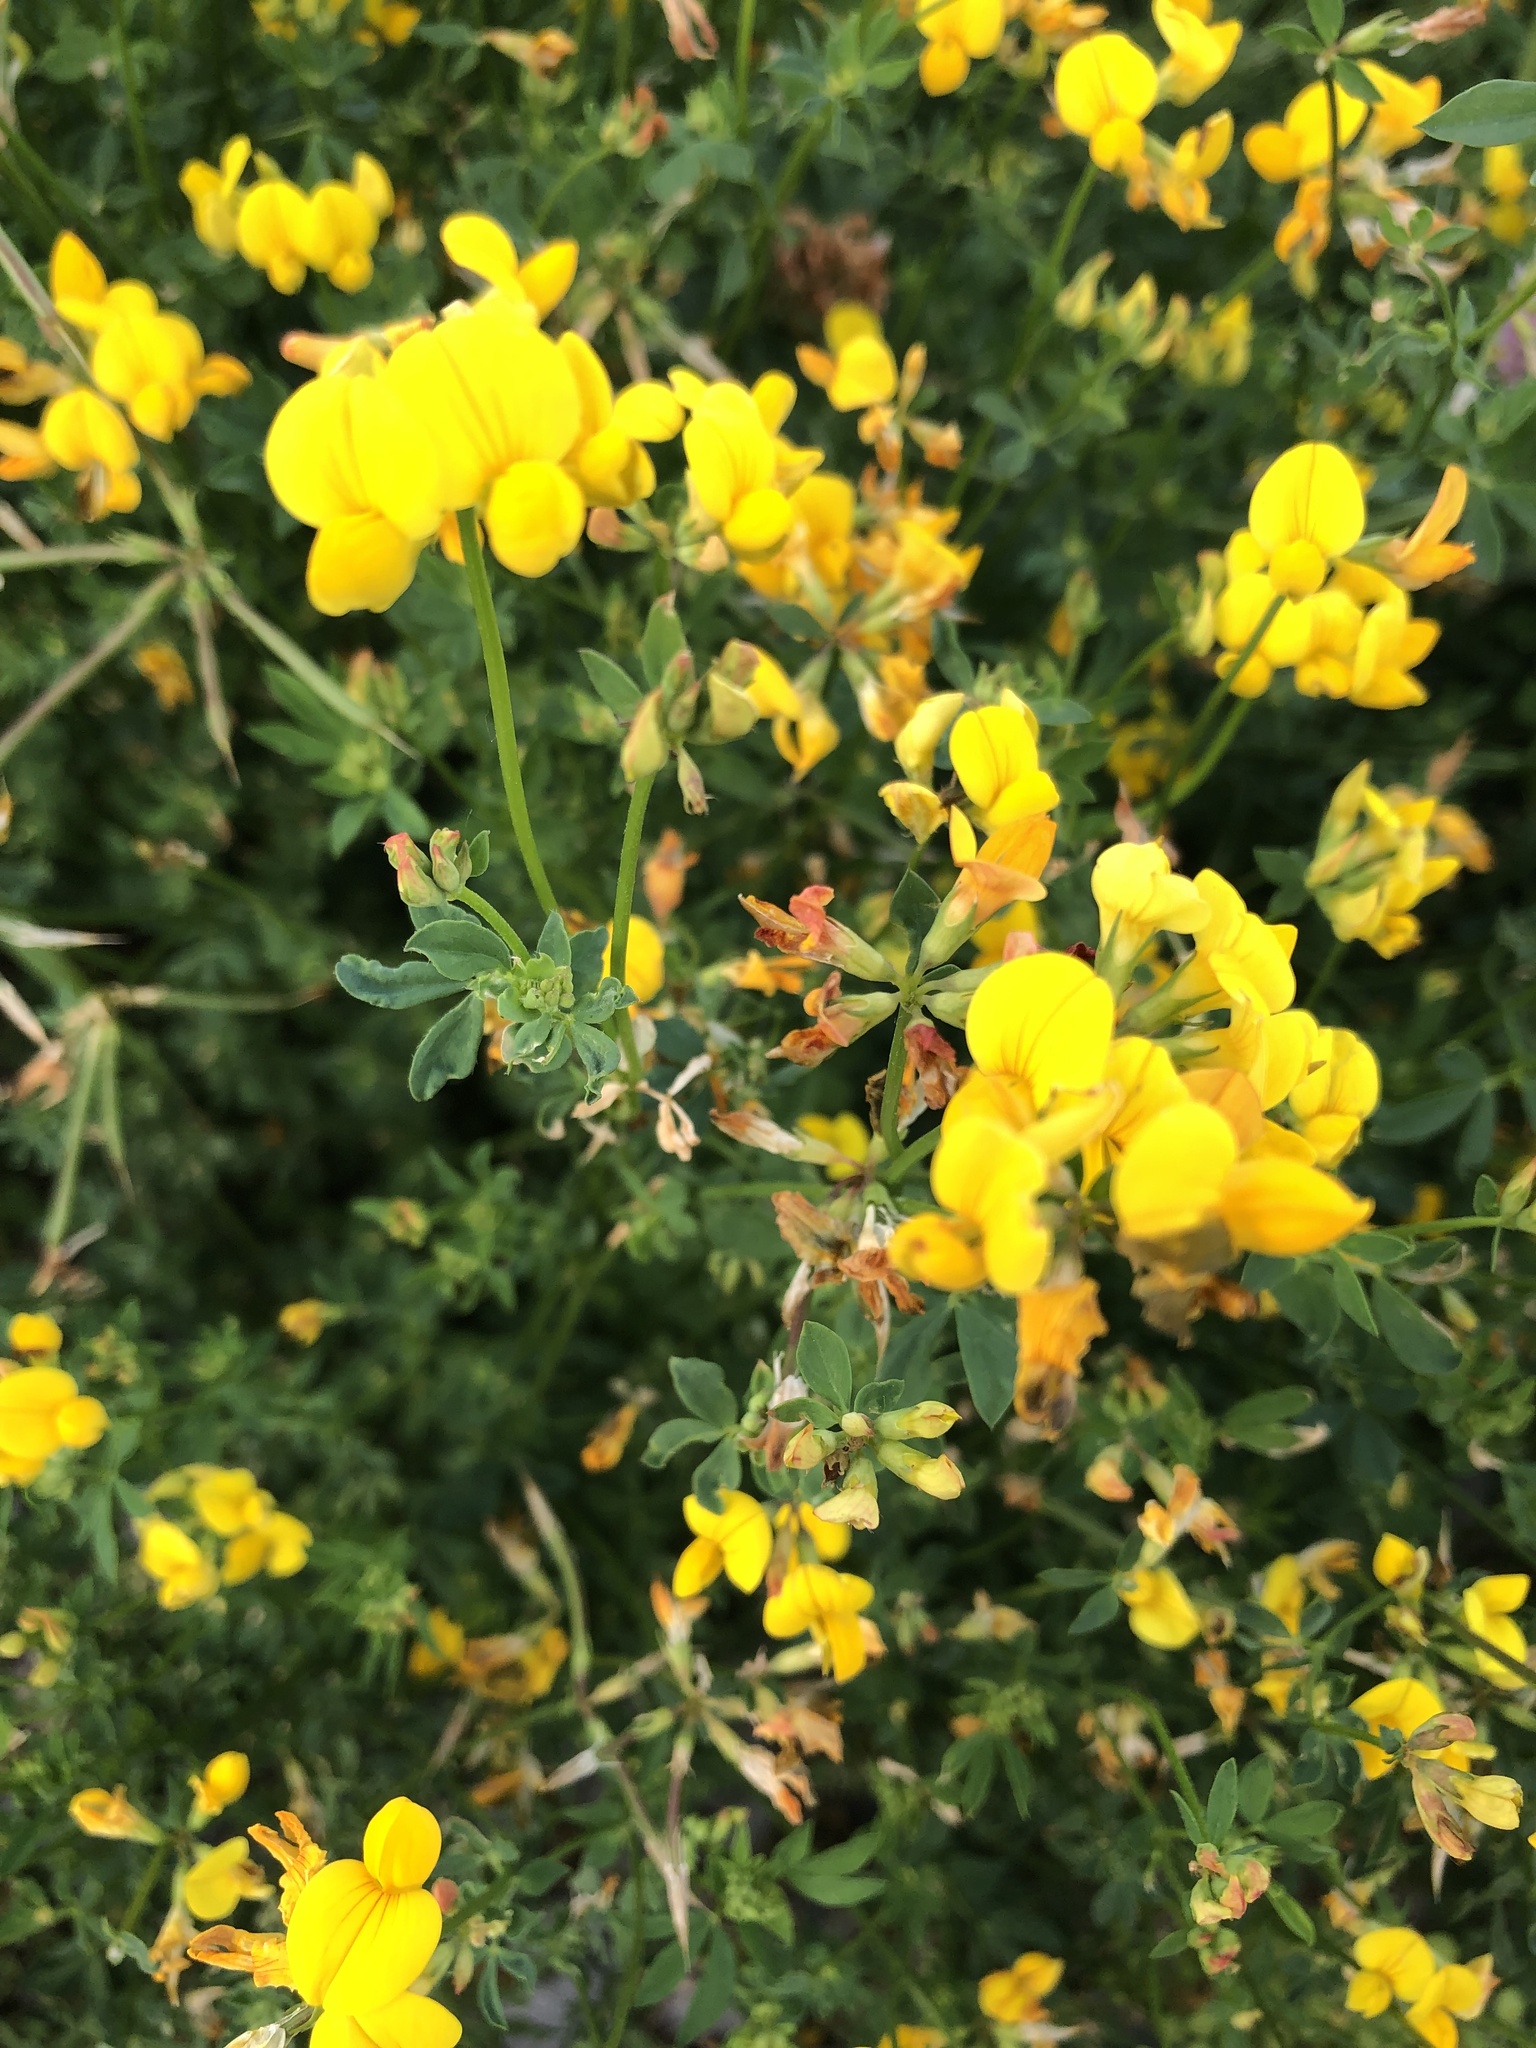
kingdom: Plantae
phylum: Tracheophyta
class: Magnoliopsida
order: Fabales
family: Fabaceae
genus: Lotus
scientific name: Lotus corniculatus
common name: Common bird's-foot-trefoil
